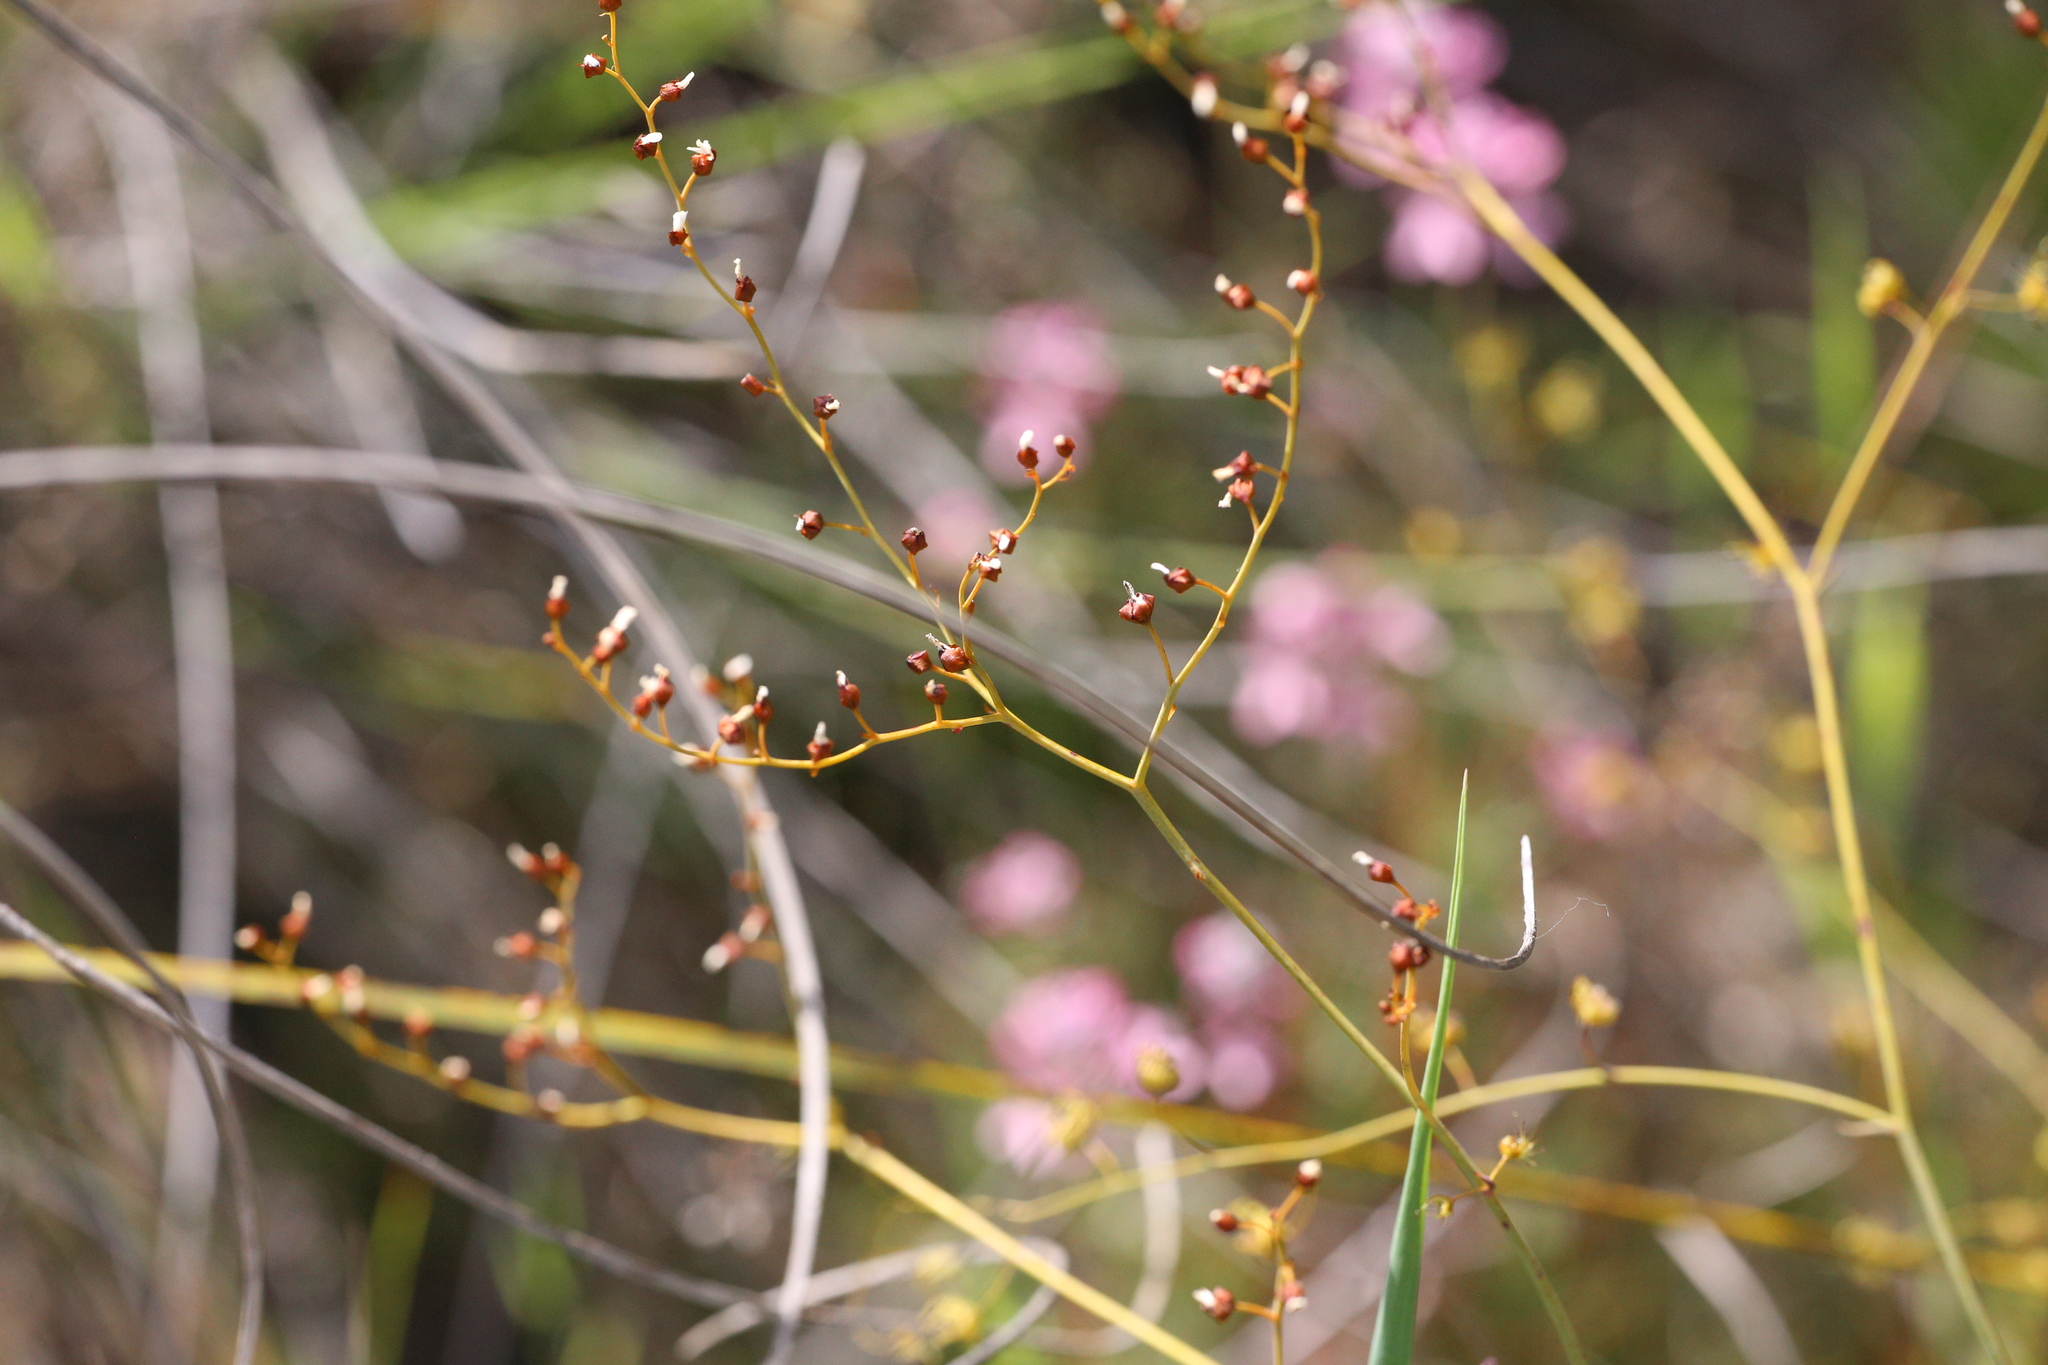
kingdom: Plantae
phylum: Tracheophyta
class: Magnoliopsida
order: Caryophyllales
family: Droseraceae
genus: Drosera
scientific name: Drosera gigantea
